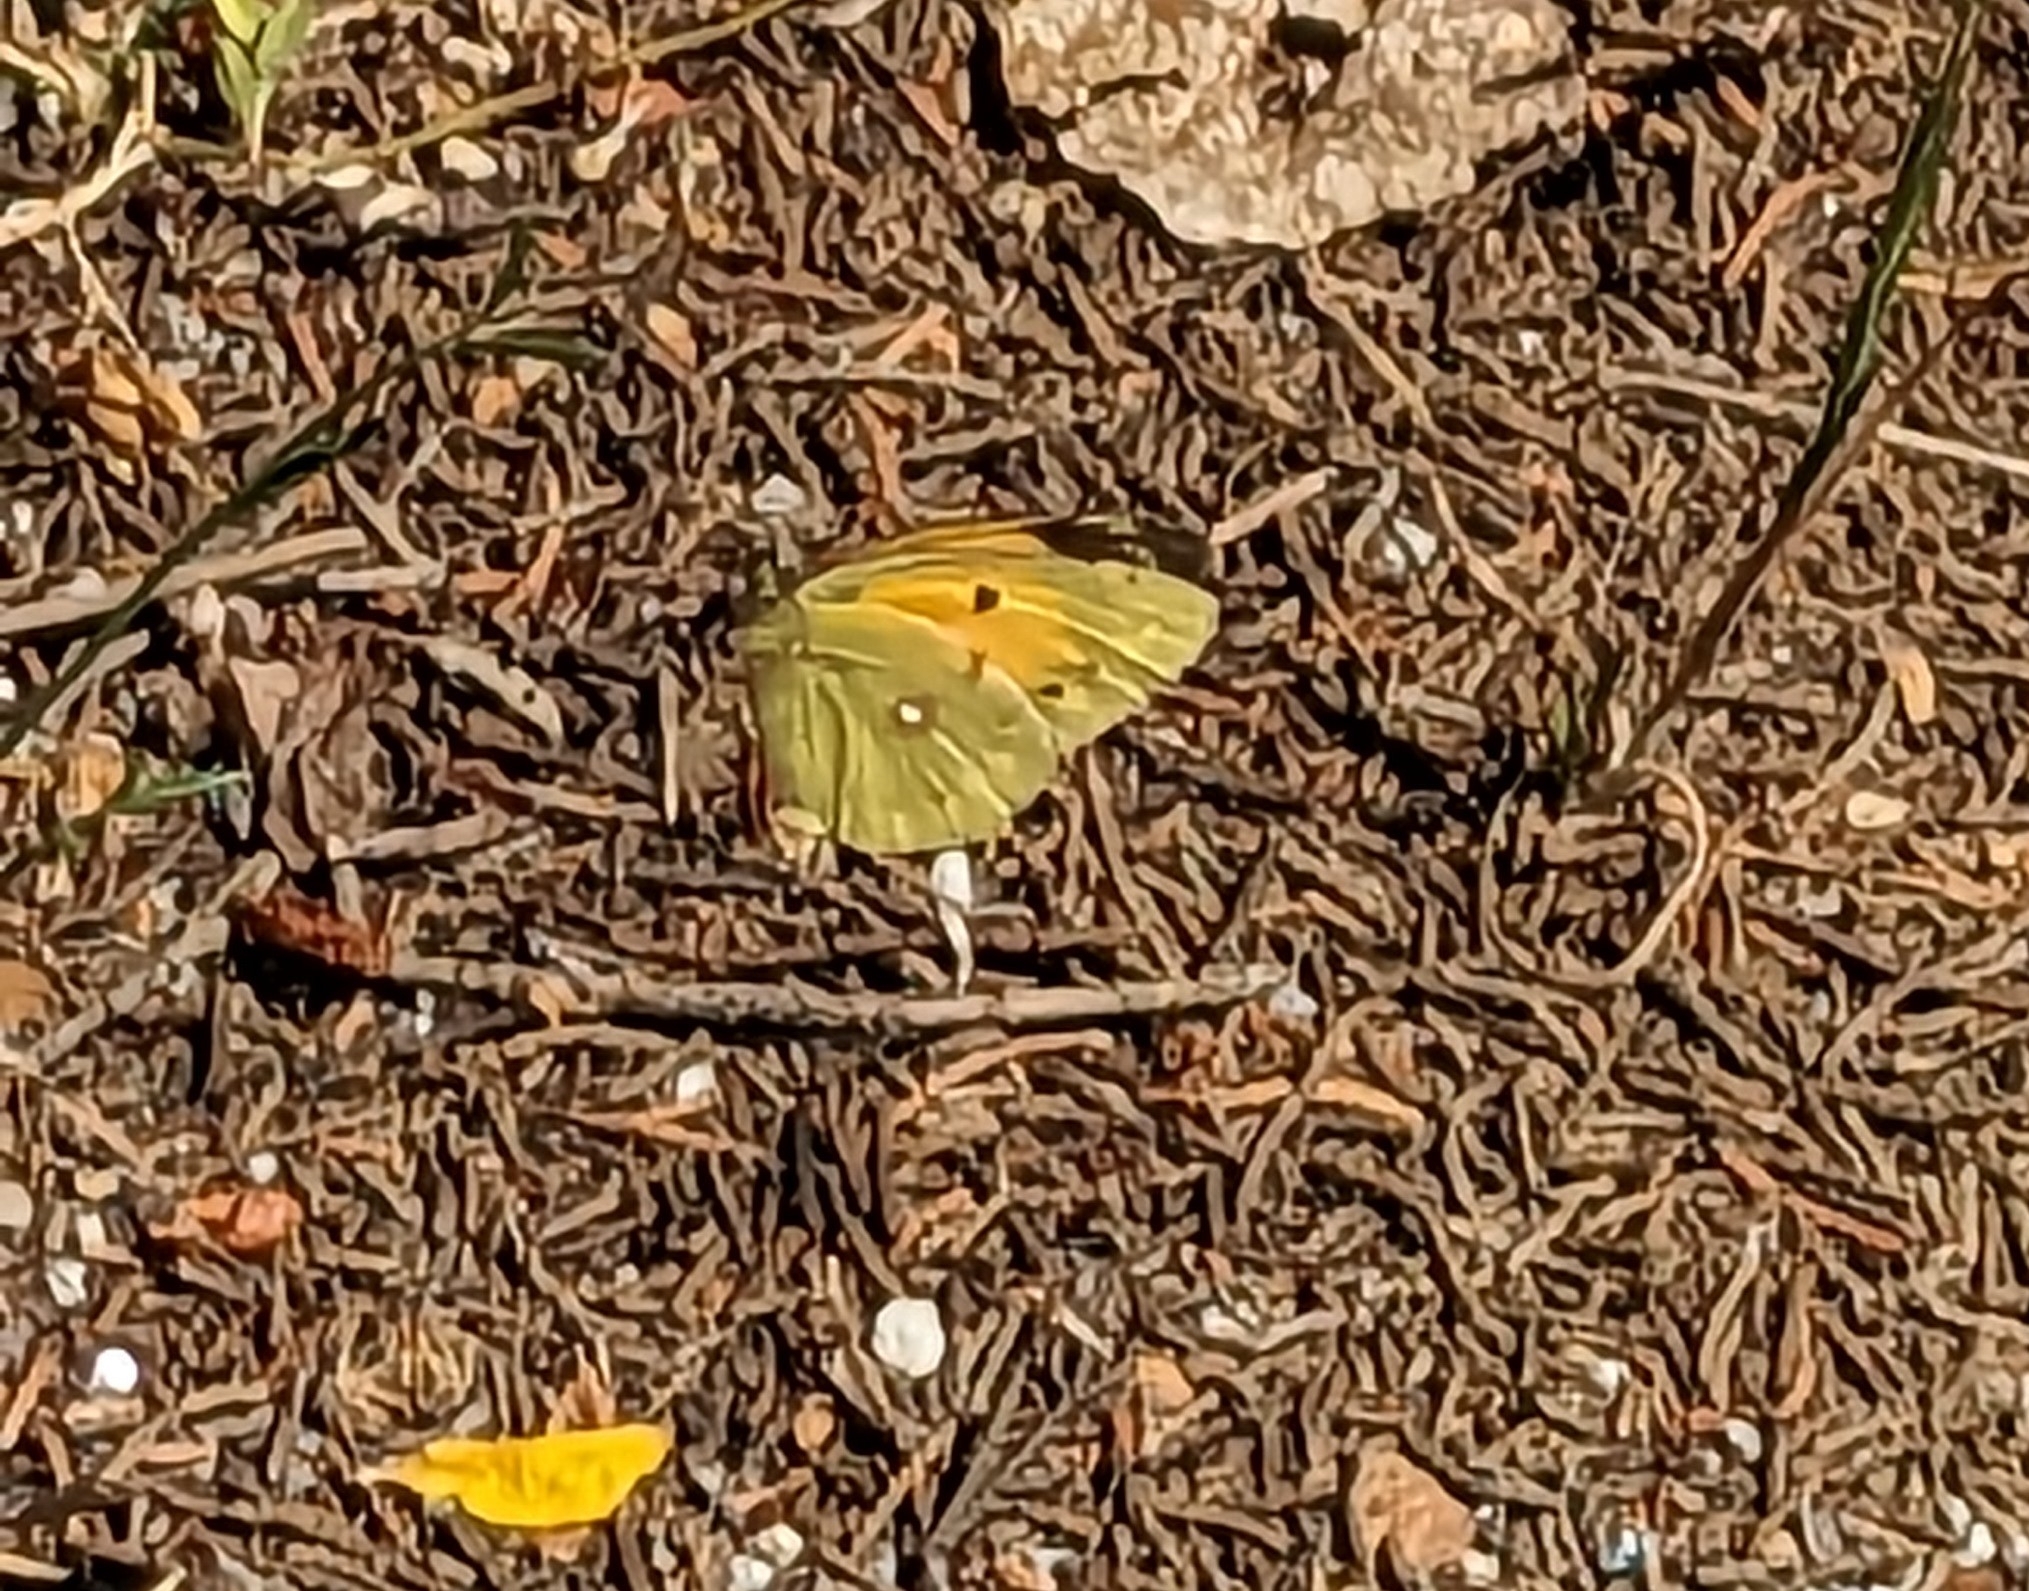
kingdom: Animalia
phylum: Arthropoda
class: Insecta
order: Lepidoptera
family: Pieridae
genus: Colias
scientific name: Colias croceus
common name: Clouded yellow
